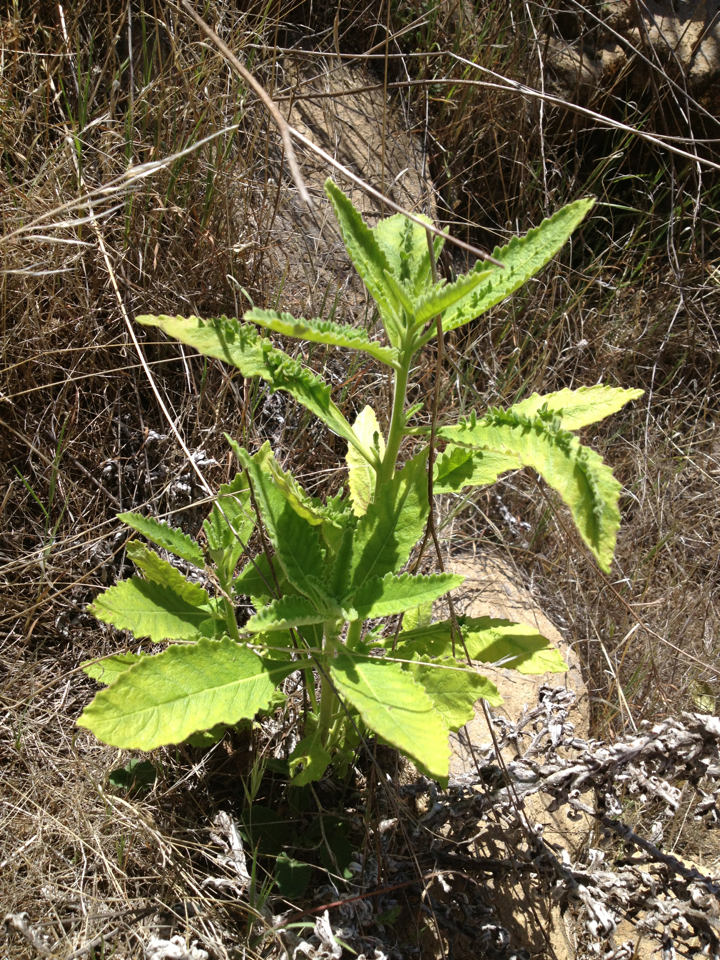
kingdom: Plantae
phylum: Tracheophyta
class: Magnoliopsida
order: Boraginales
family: Namaceae
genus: Eriodictyon
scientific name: Eriodictyon crassifolium
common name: Thick-leaf yerba-santa
